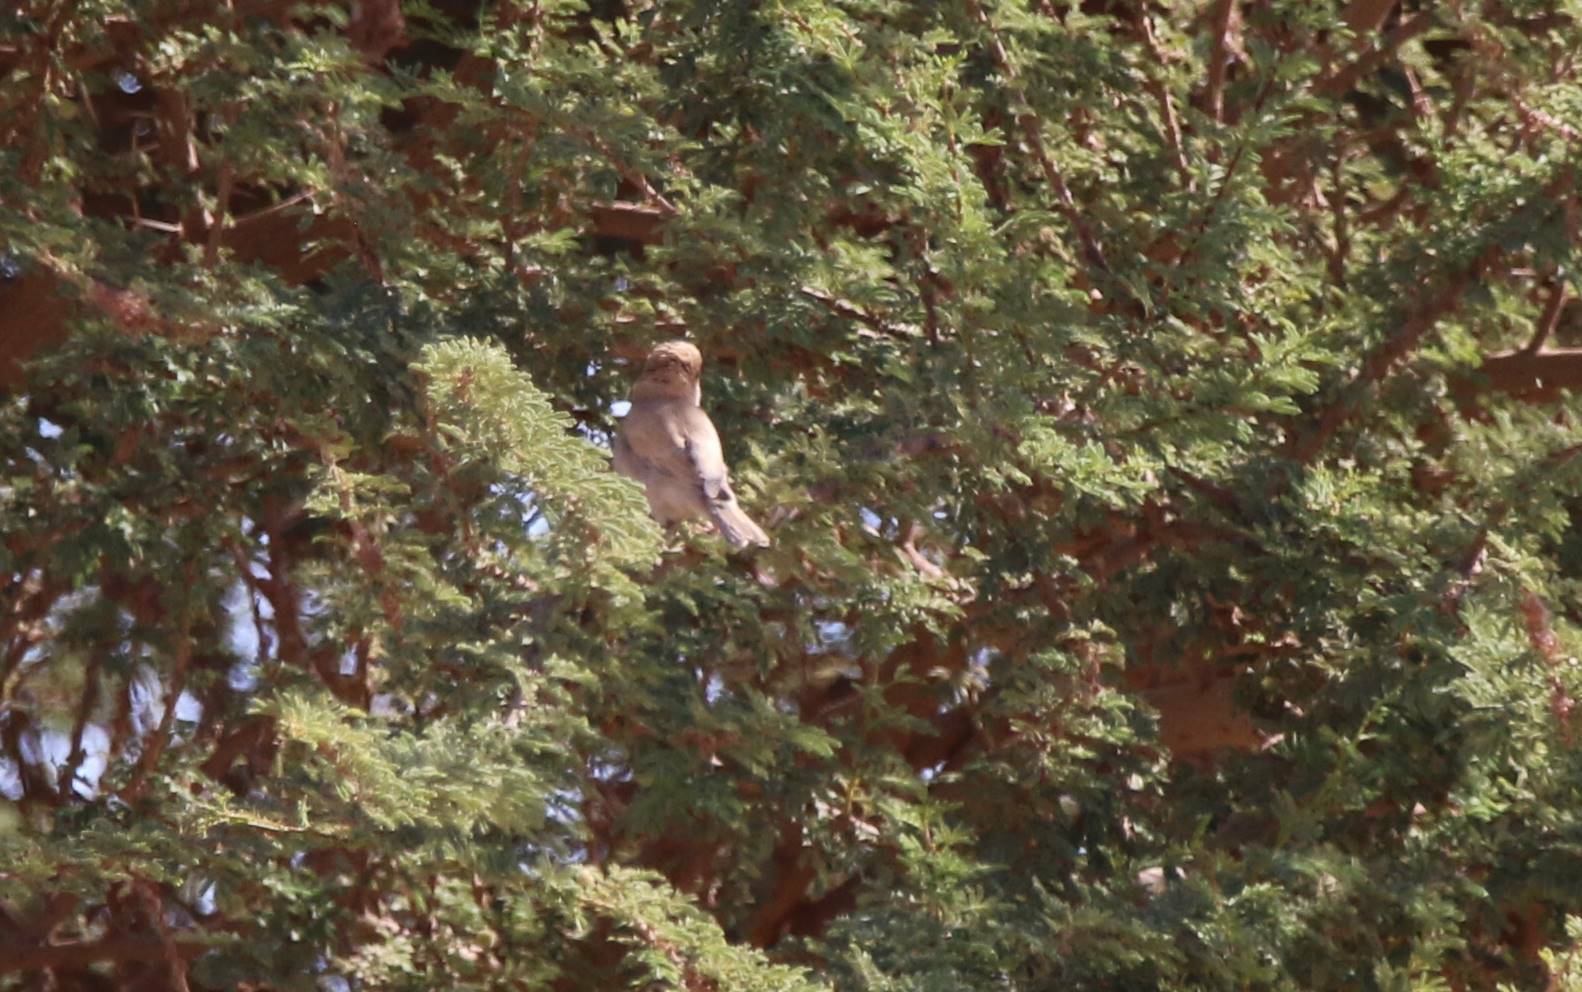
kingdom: Animalia
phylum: Chordata
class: Aves
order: Passeriformes
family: Passeridae
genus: Passer
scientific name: Passer simplex
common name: Desert sparrow
